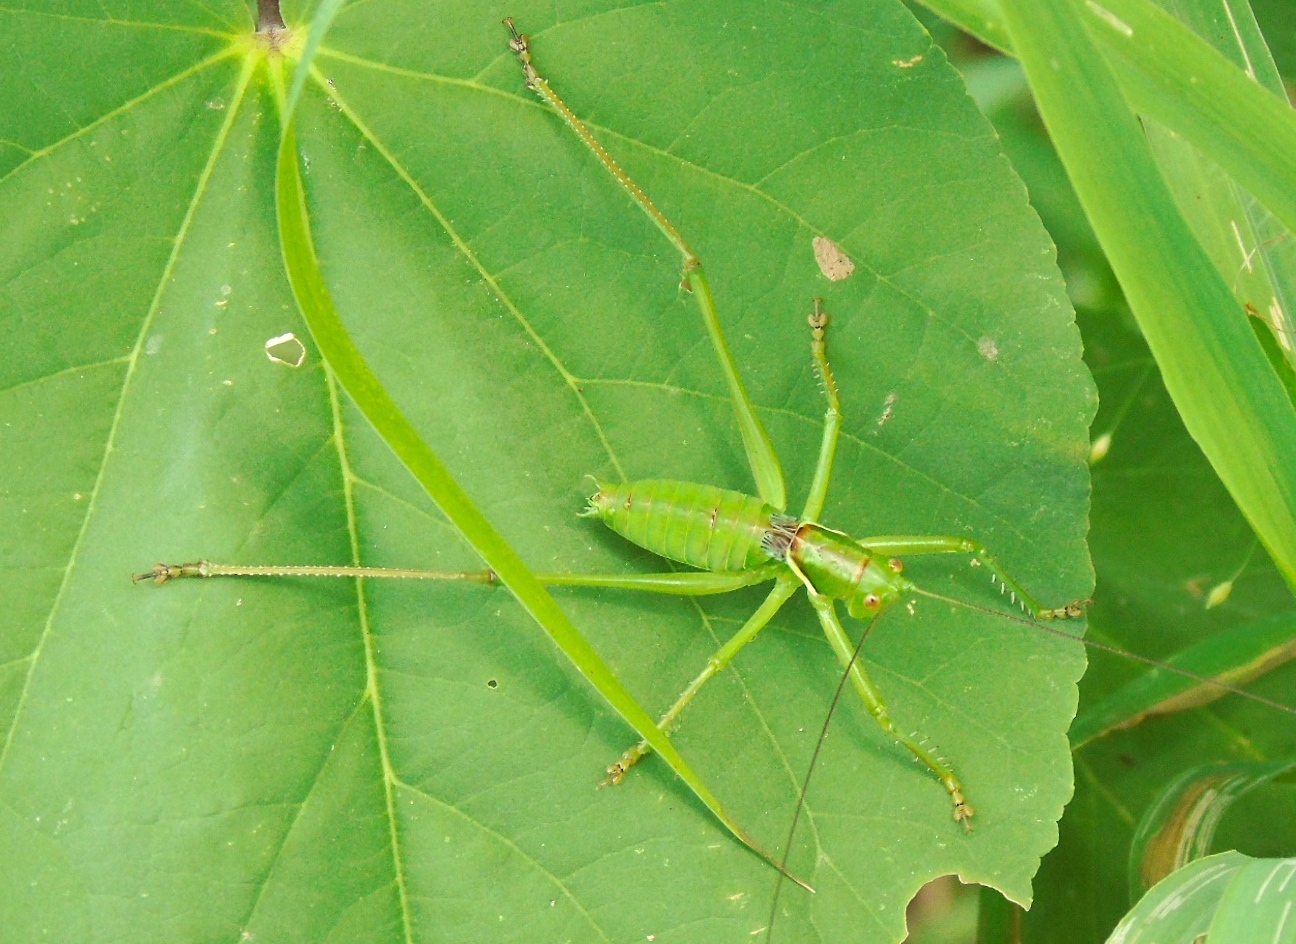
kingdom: Animalia
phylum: Arthropoda
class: Insecta
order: Orthoptera
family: Tettigoniidae
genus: Neobarrettia
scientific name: Neobarrettia sinaloae
